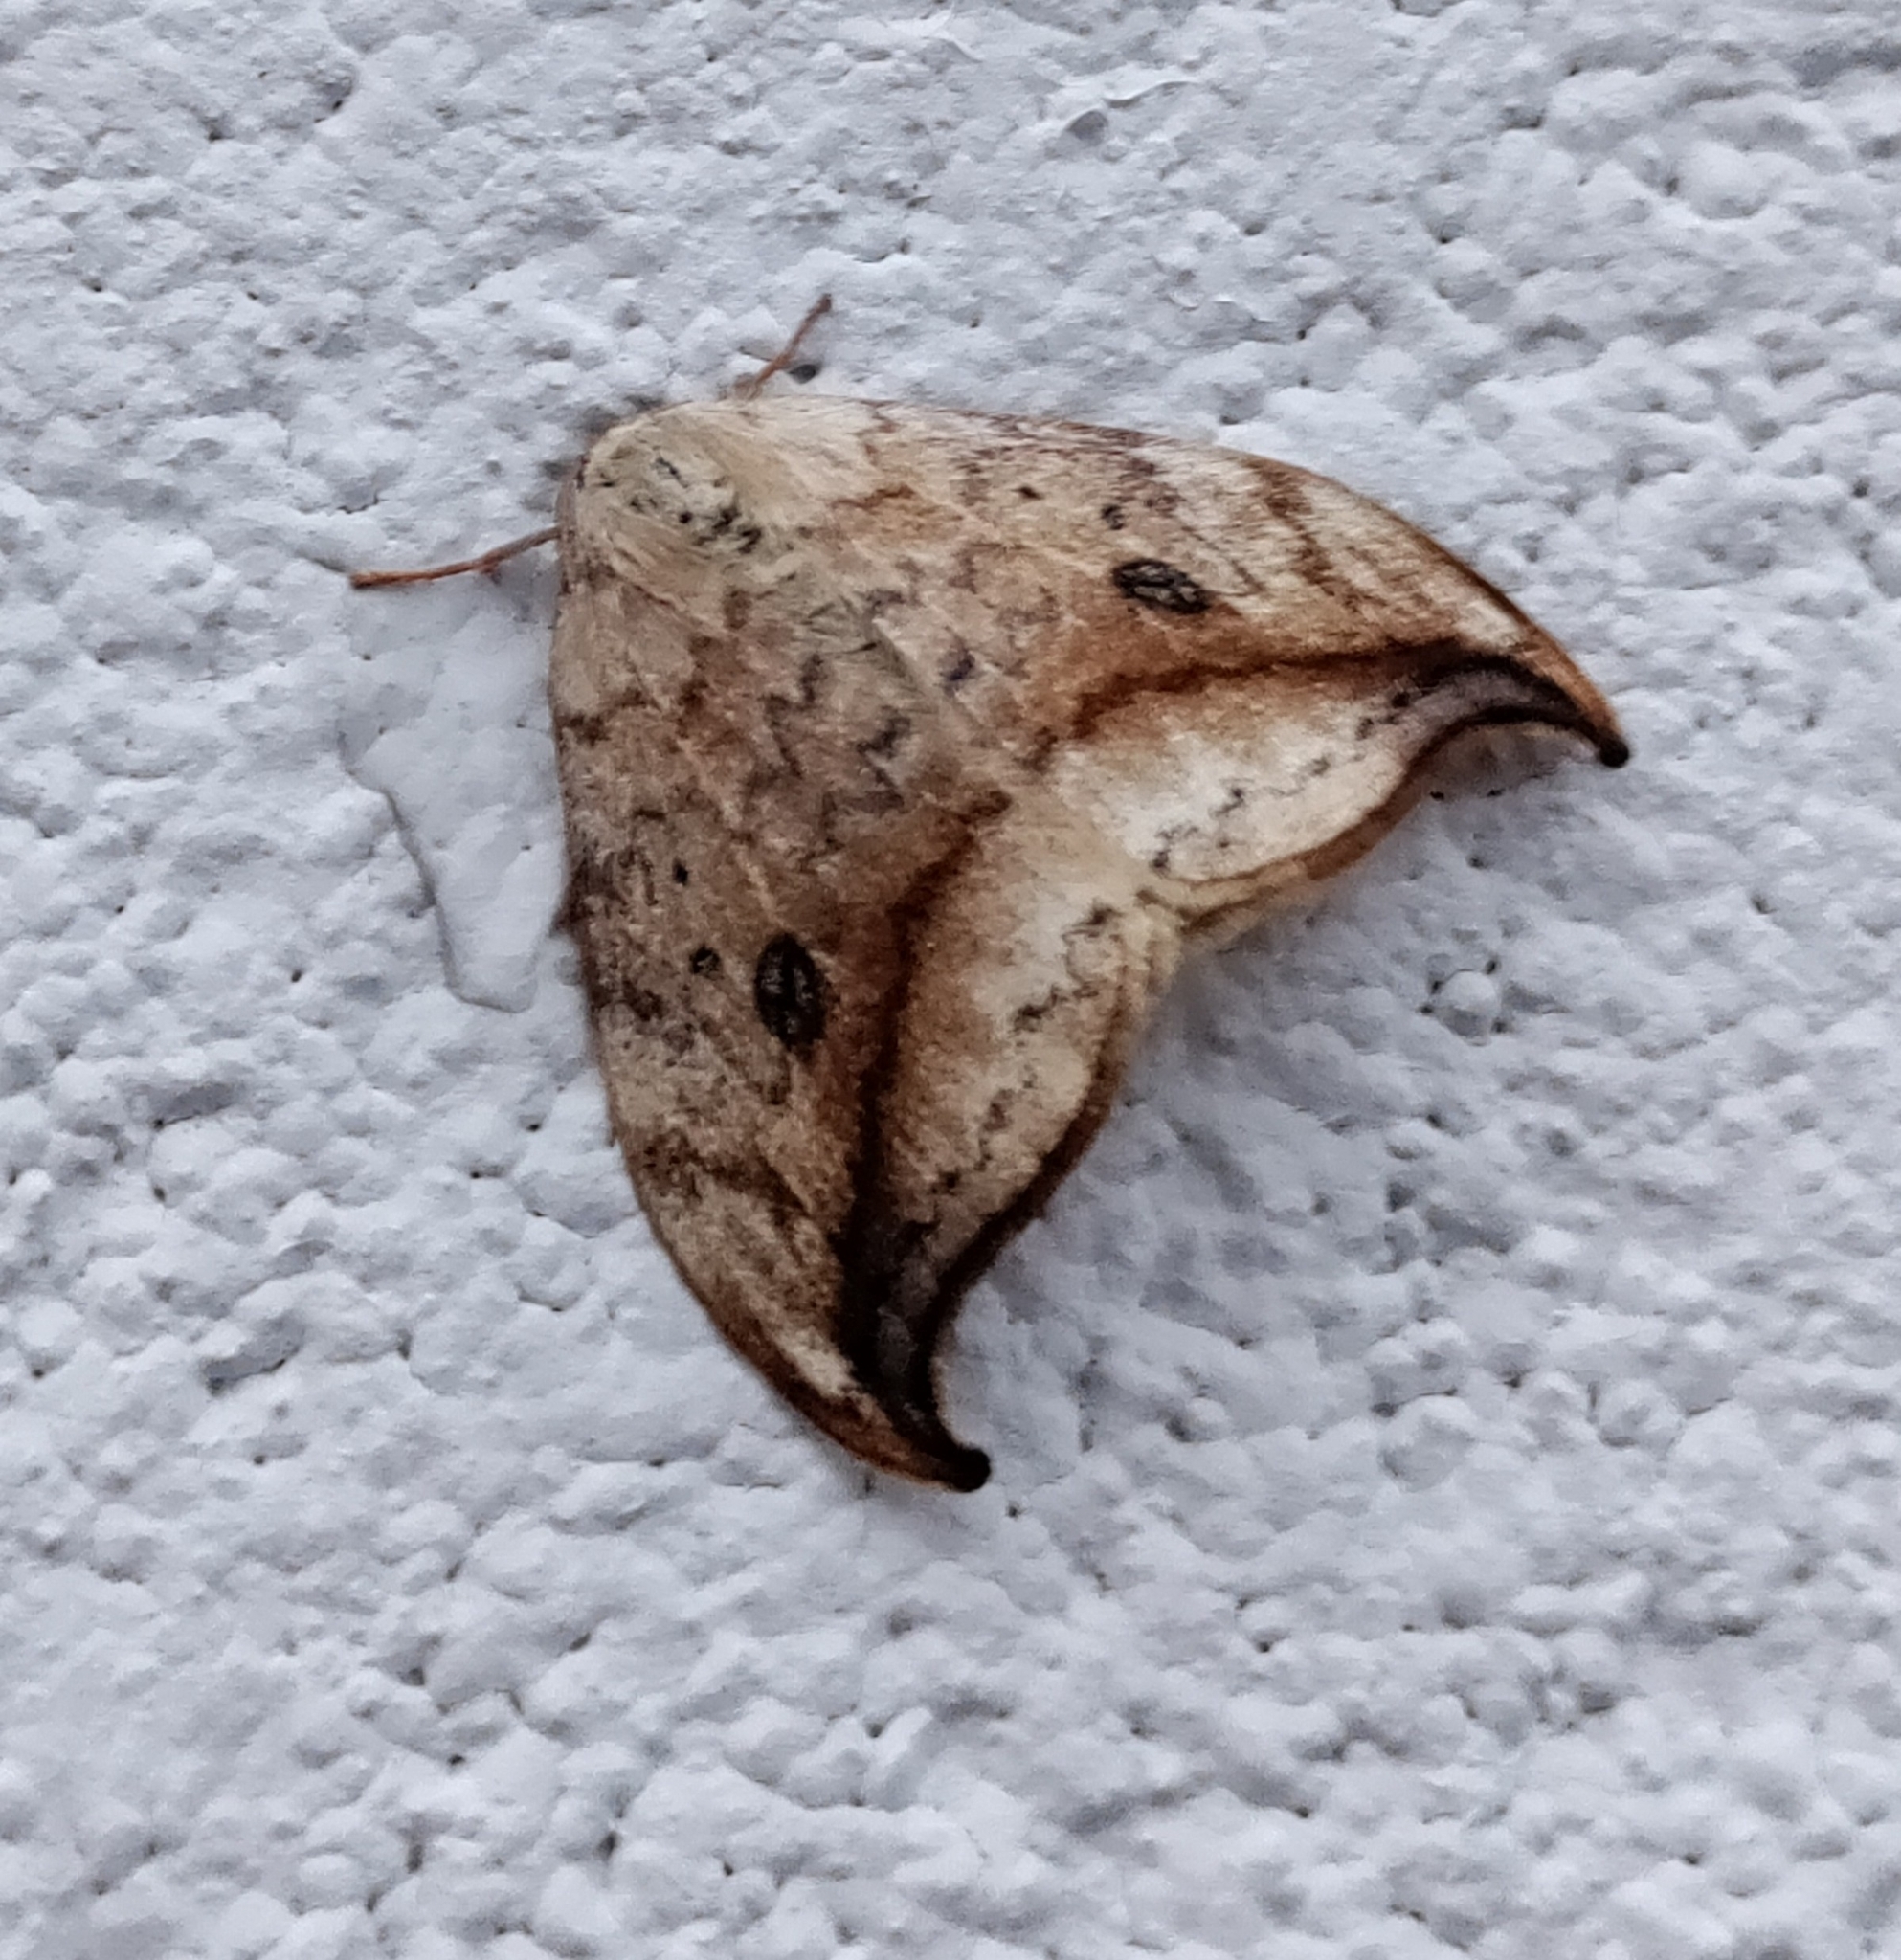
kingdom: Animalia
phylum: Arthropoda
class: Insecta
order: Lepidoptera
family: Drepanidae
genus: Drepana
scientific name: Drepana falcataria
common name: Pebble hook-tip
